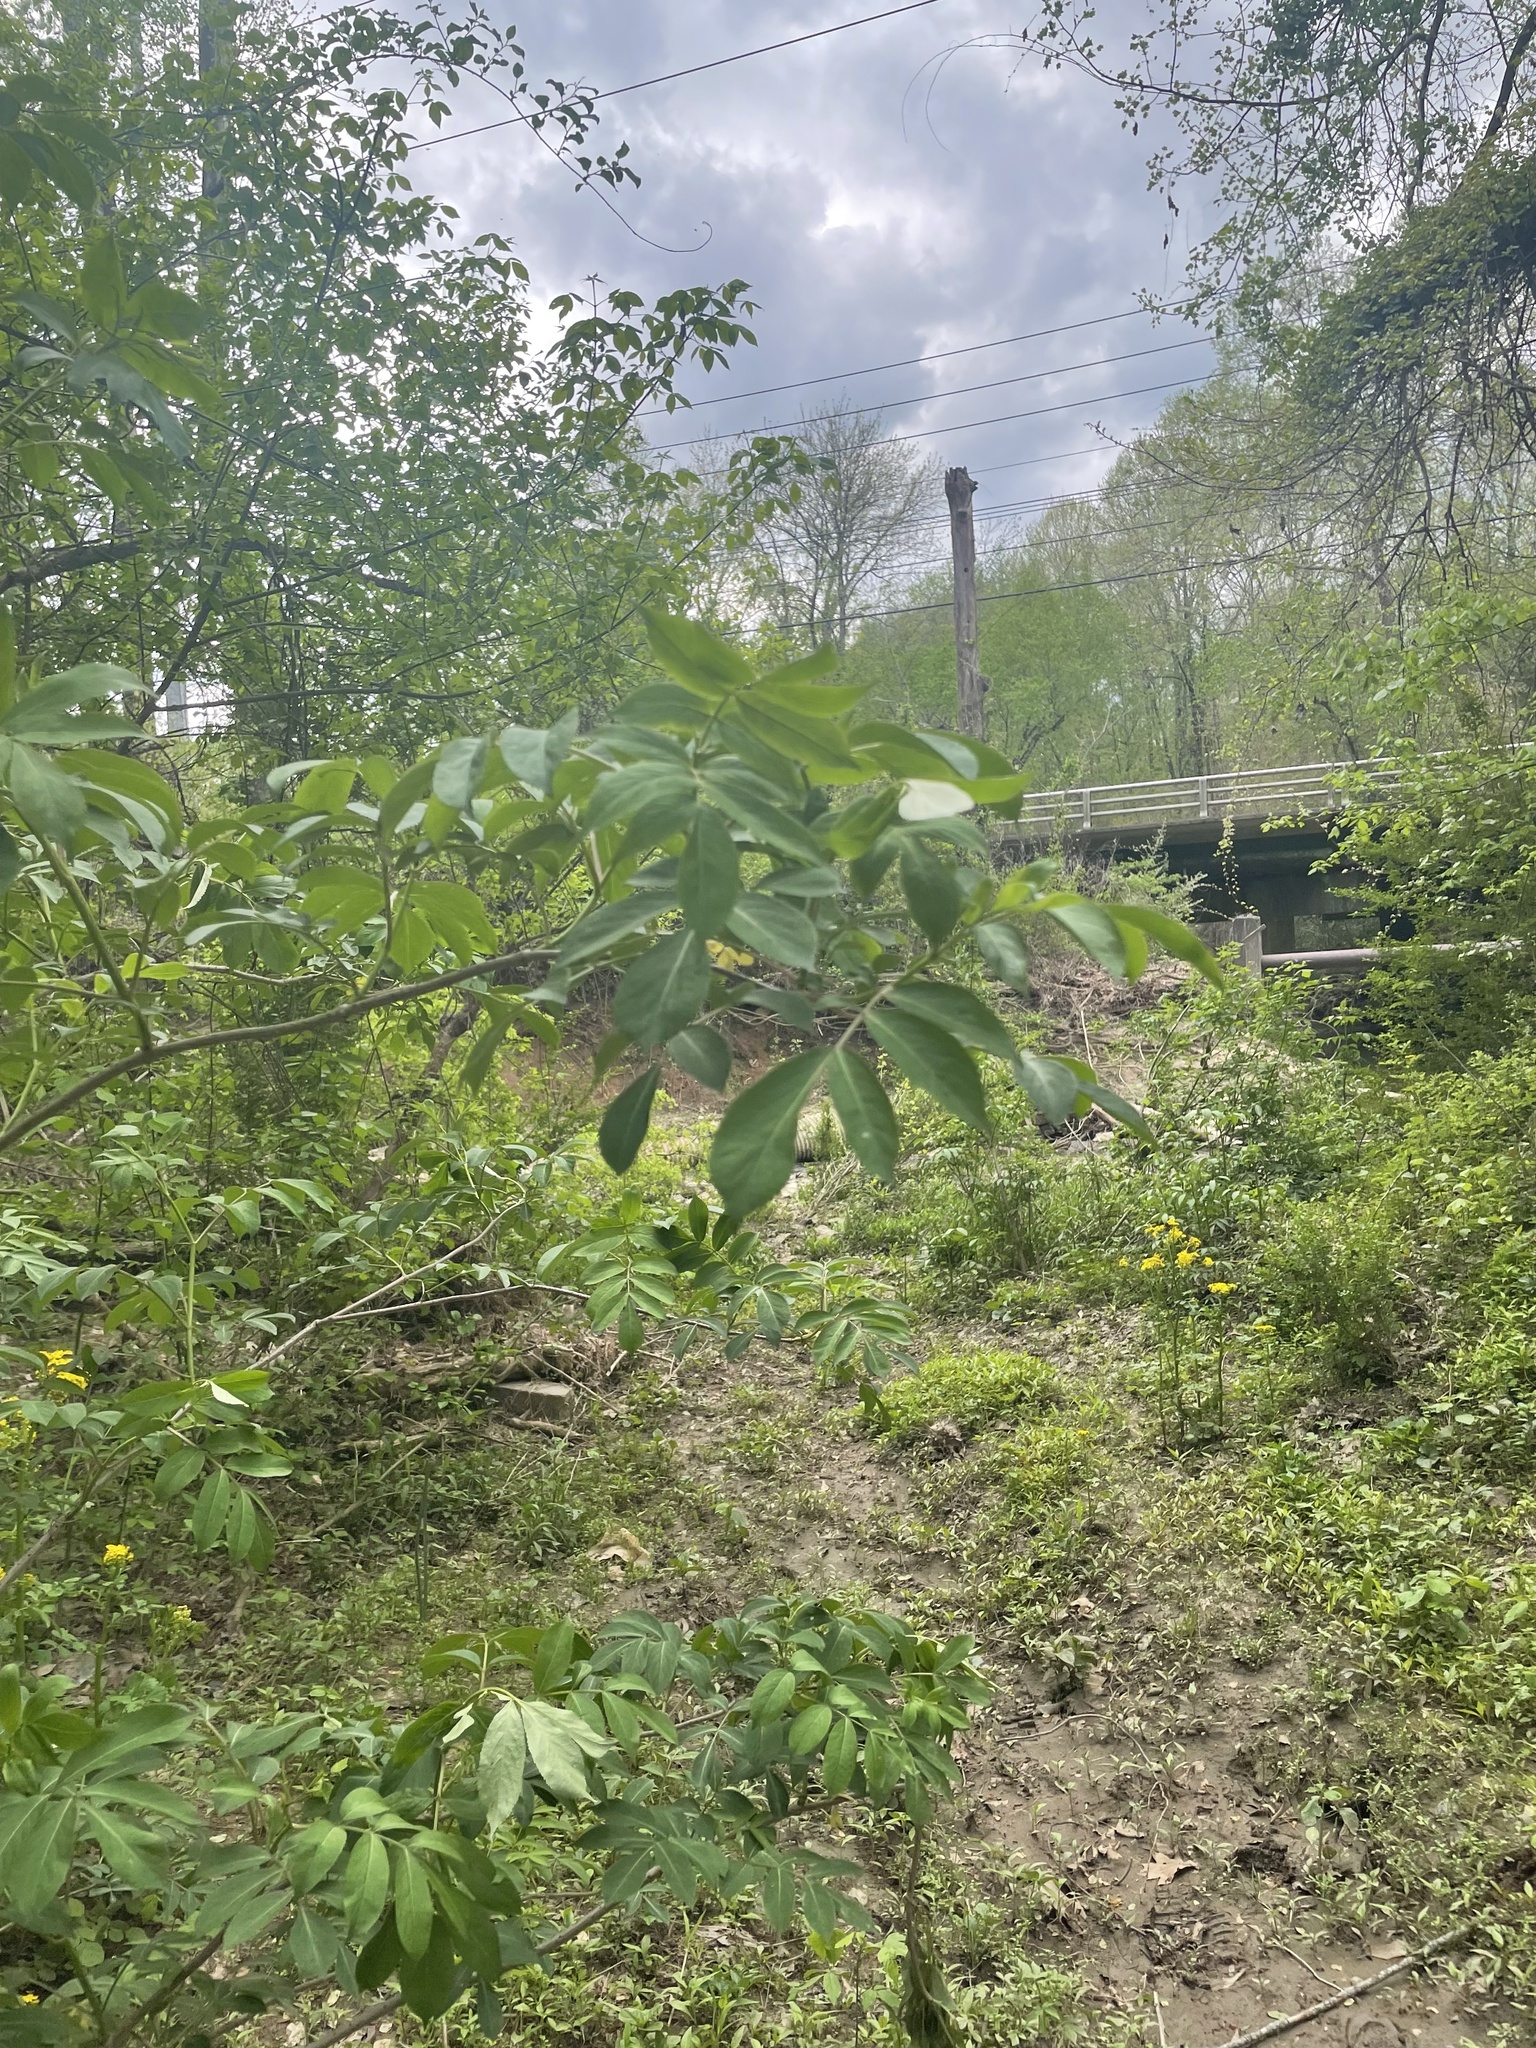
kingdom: Plantae
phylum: Tracheophyta
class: Magnoliopsida
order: Dipsacales
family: Viburnaceae
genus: Sambucus
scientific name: Sambucus canadensis
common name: American elder
